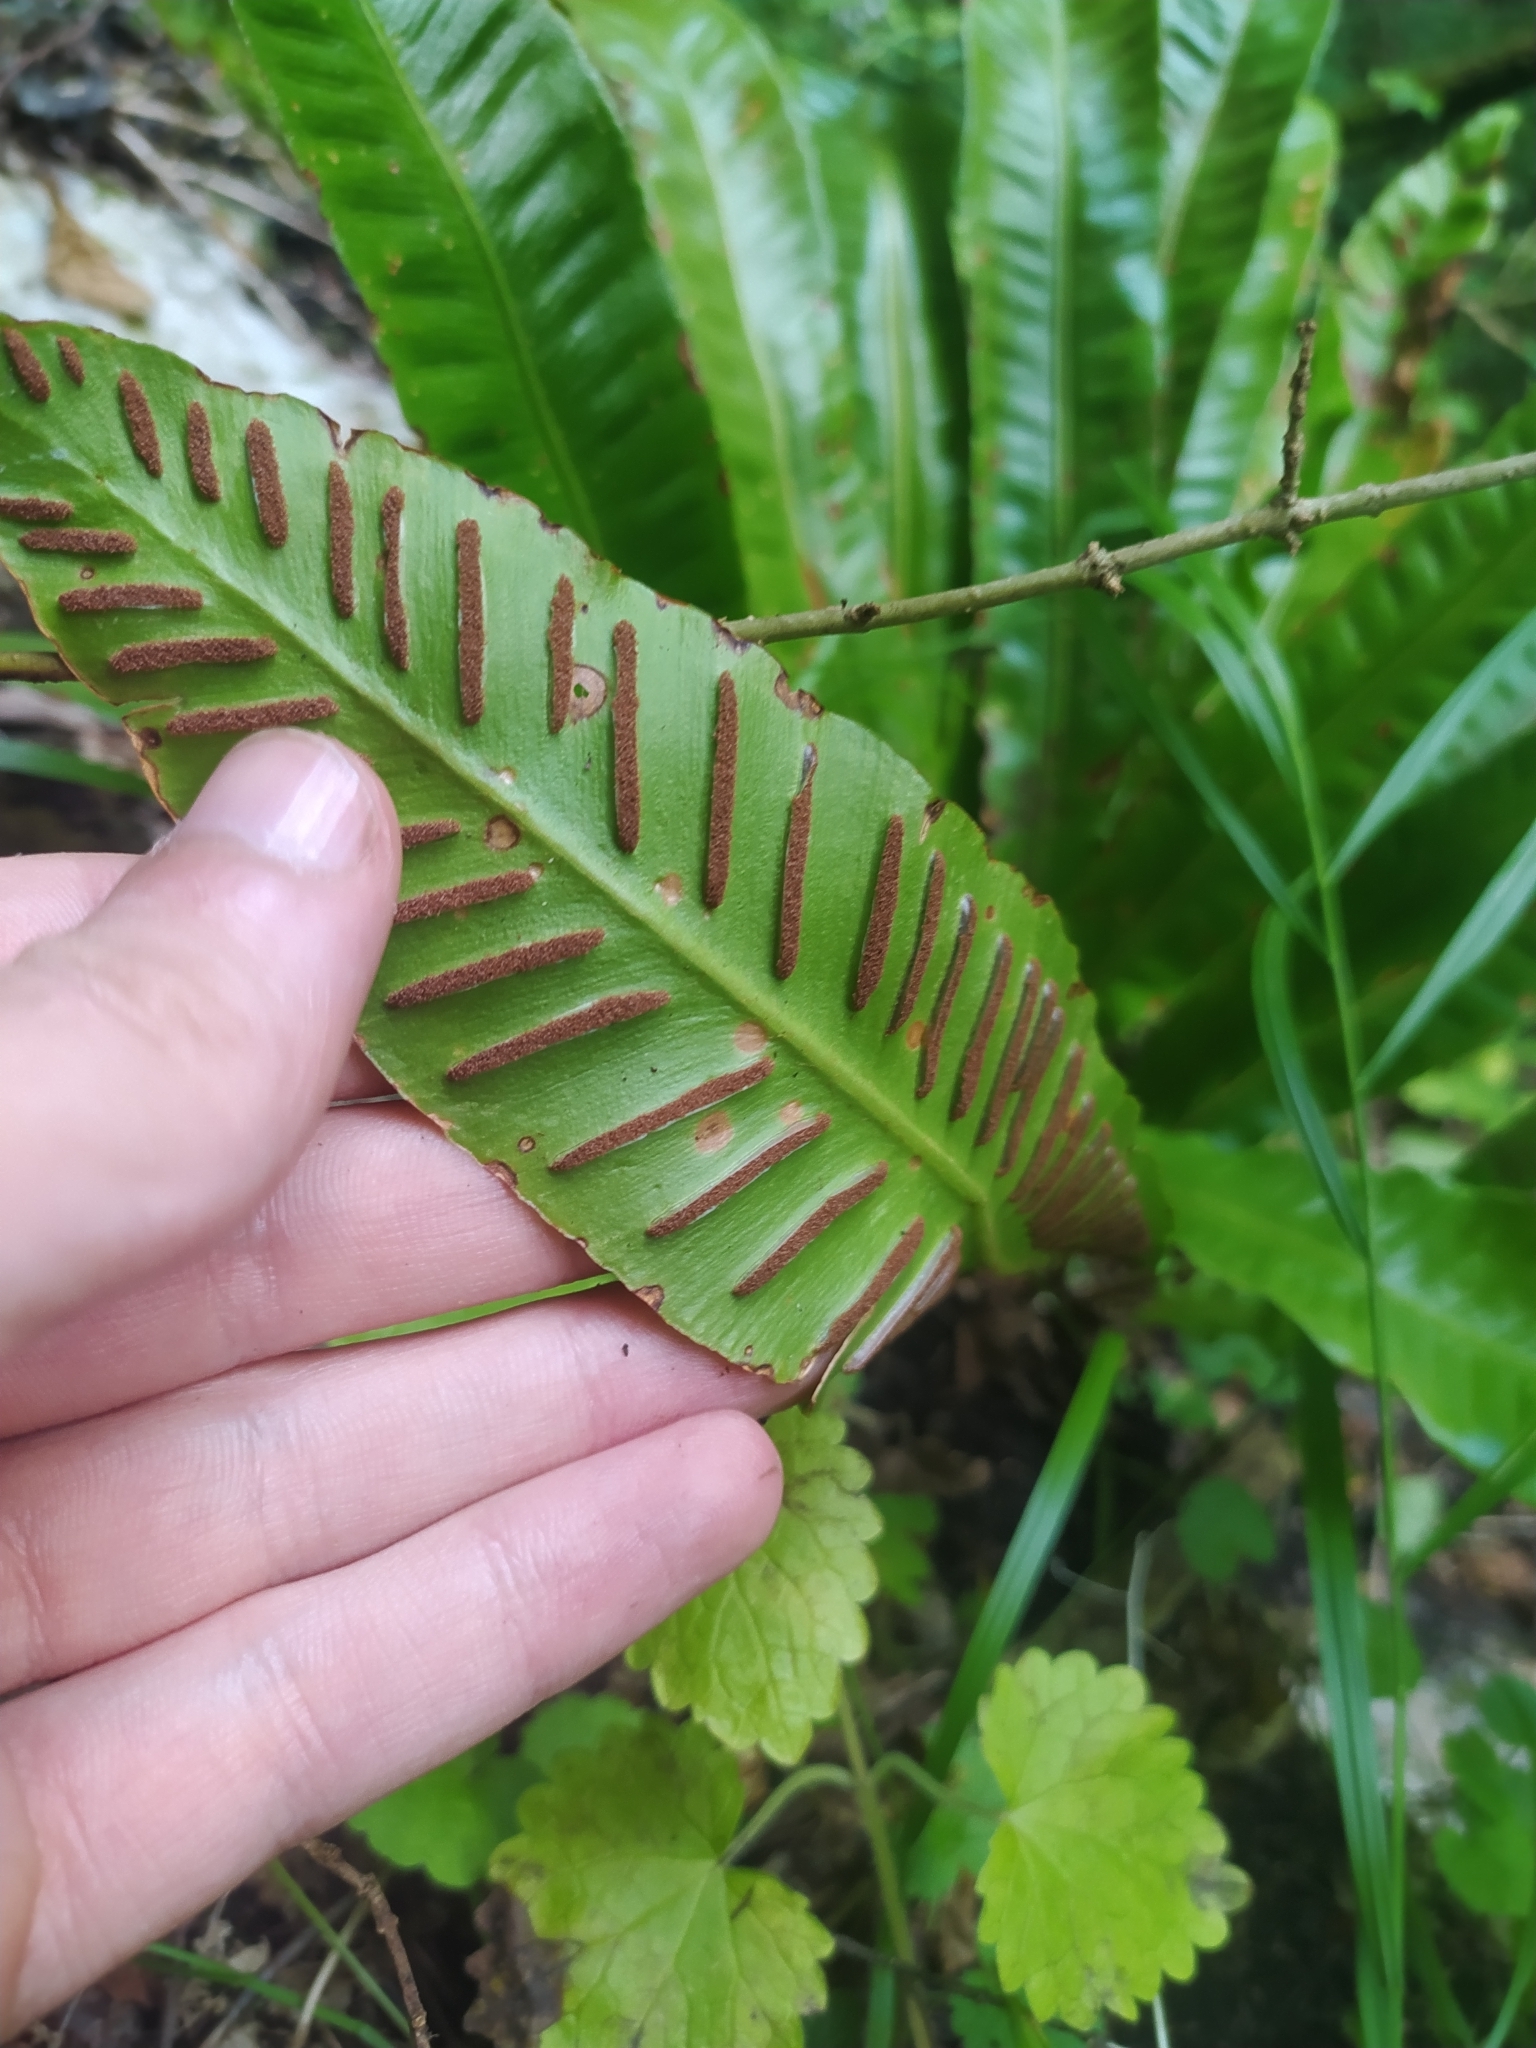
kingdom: Plantae
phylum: Tracheophyta
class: Polypodiopsida
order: Polypodiales
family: Aspleniaceae
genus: Asplenium
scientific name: Asplenium scolopendrium
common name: Hart's-tongue fern
